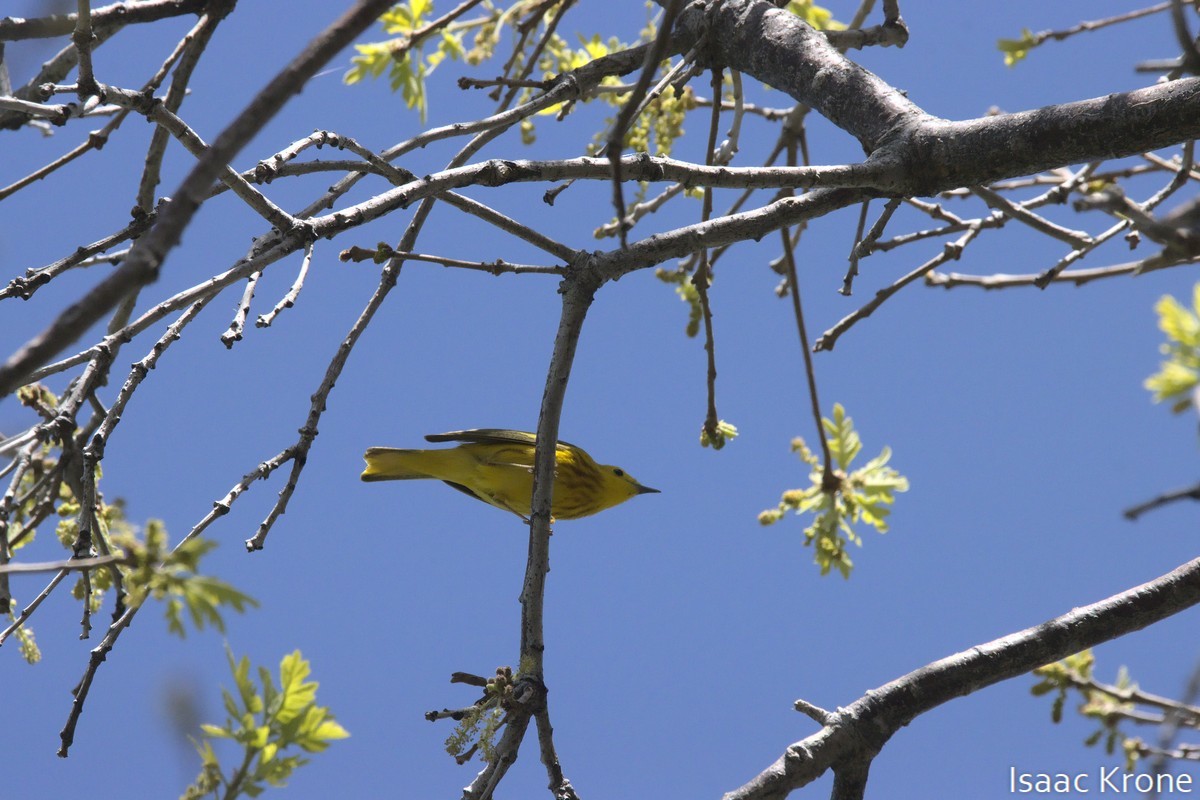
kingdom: Animalia
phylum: Chordata
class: Aves
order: Passeriformes
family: Parulidae
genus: Setophaga
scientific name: Setophaga petechia
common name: Yellow warbler
